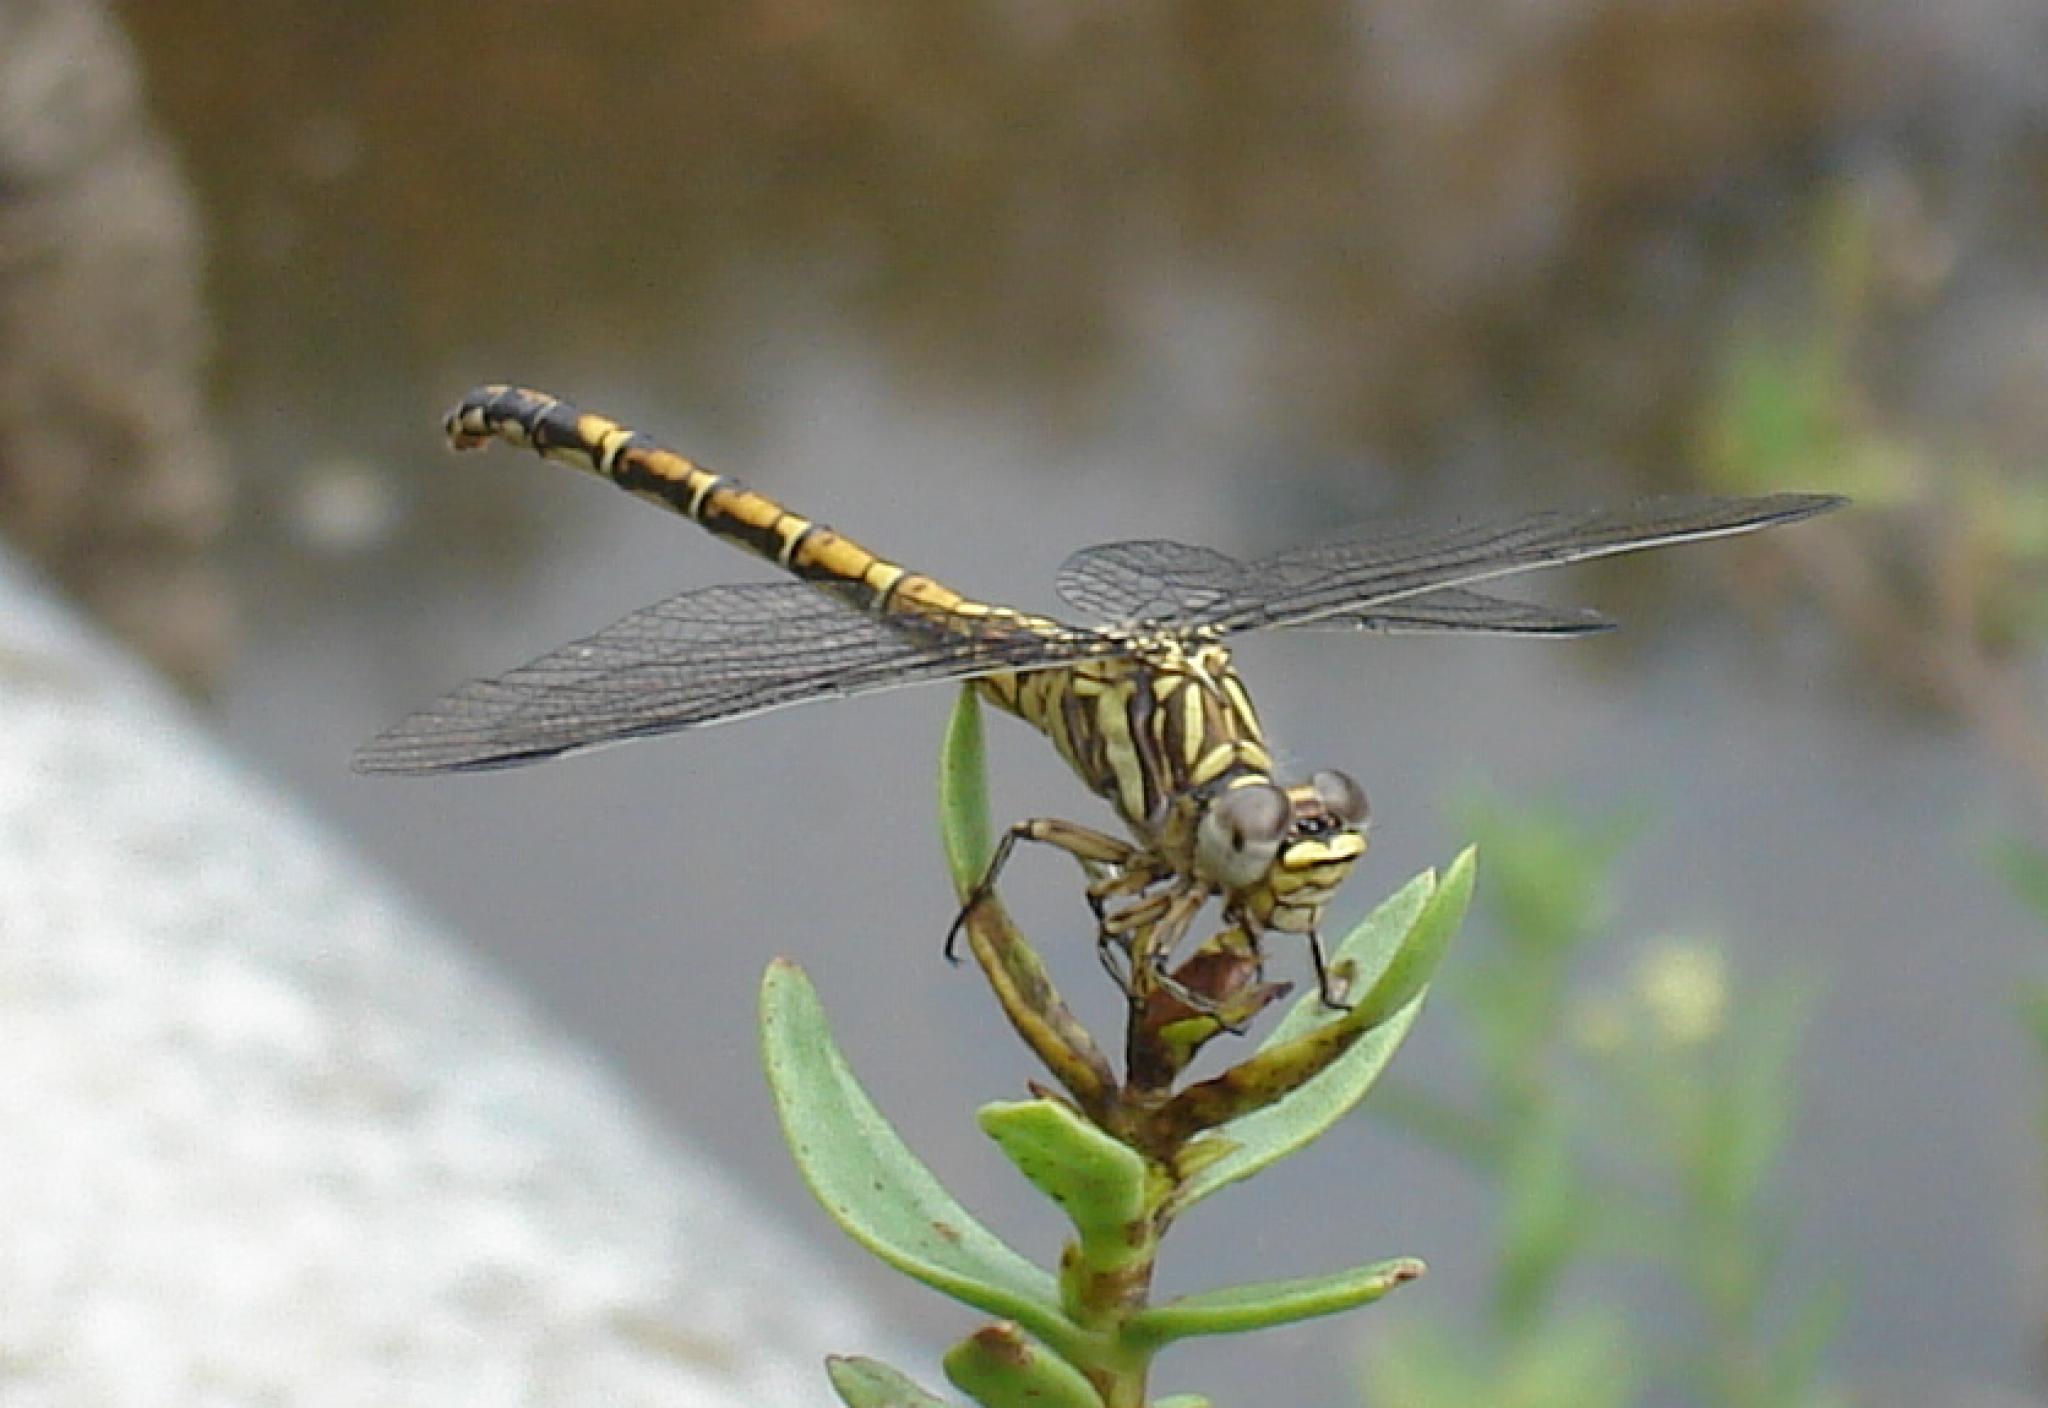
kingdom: Animalia
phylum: Arthropoda
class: Insecta
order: Odonata
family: Gomphidae
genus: Paragomphus
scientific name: Paragomphus cognatus
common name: Boulder hooktail
